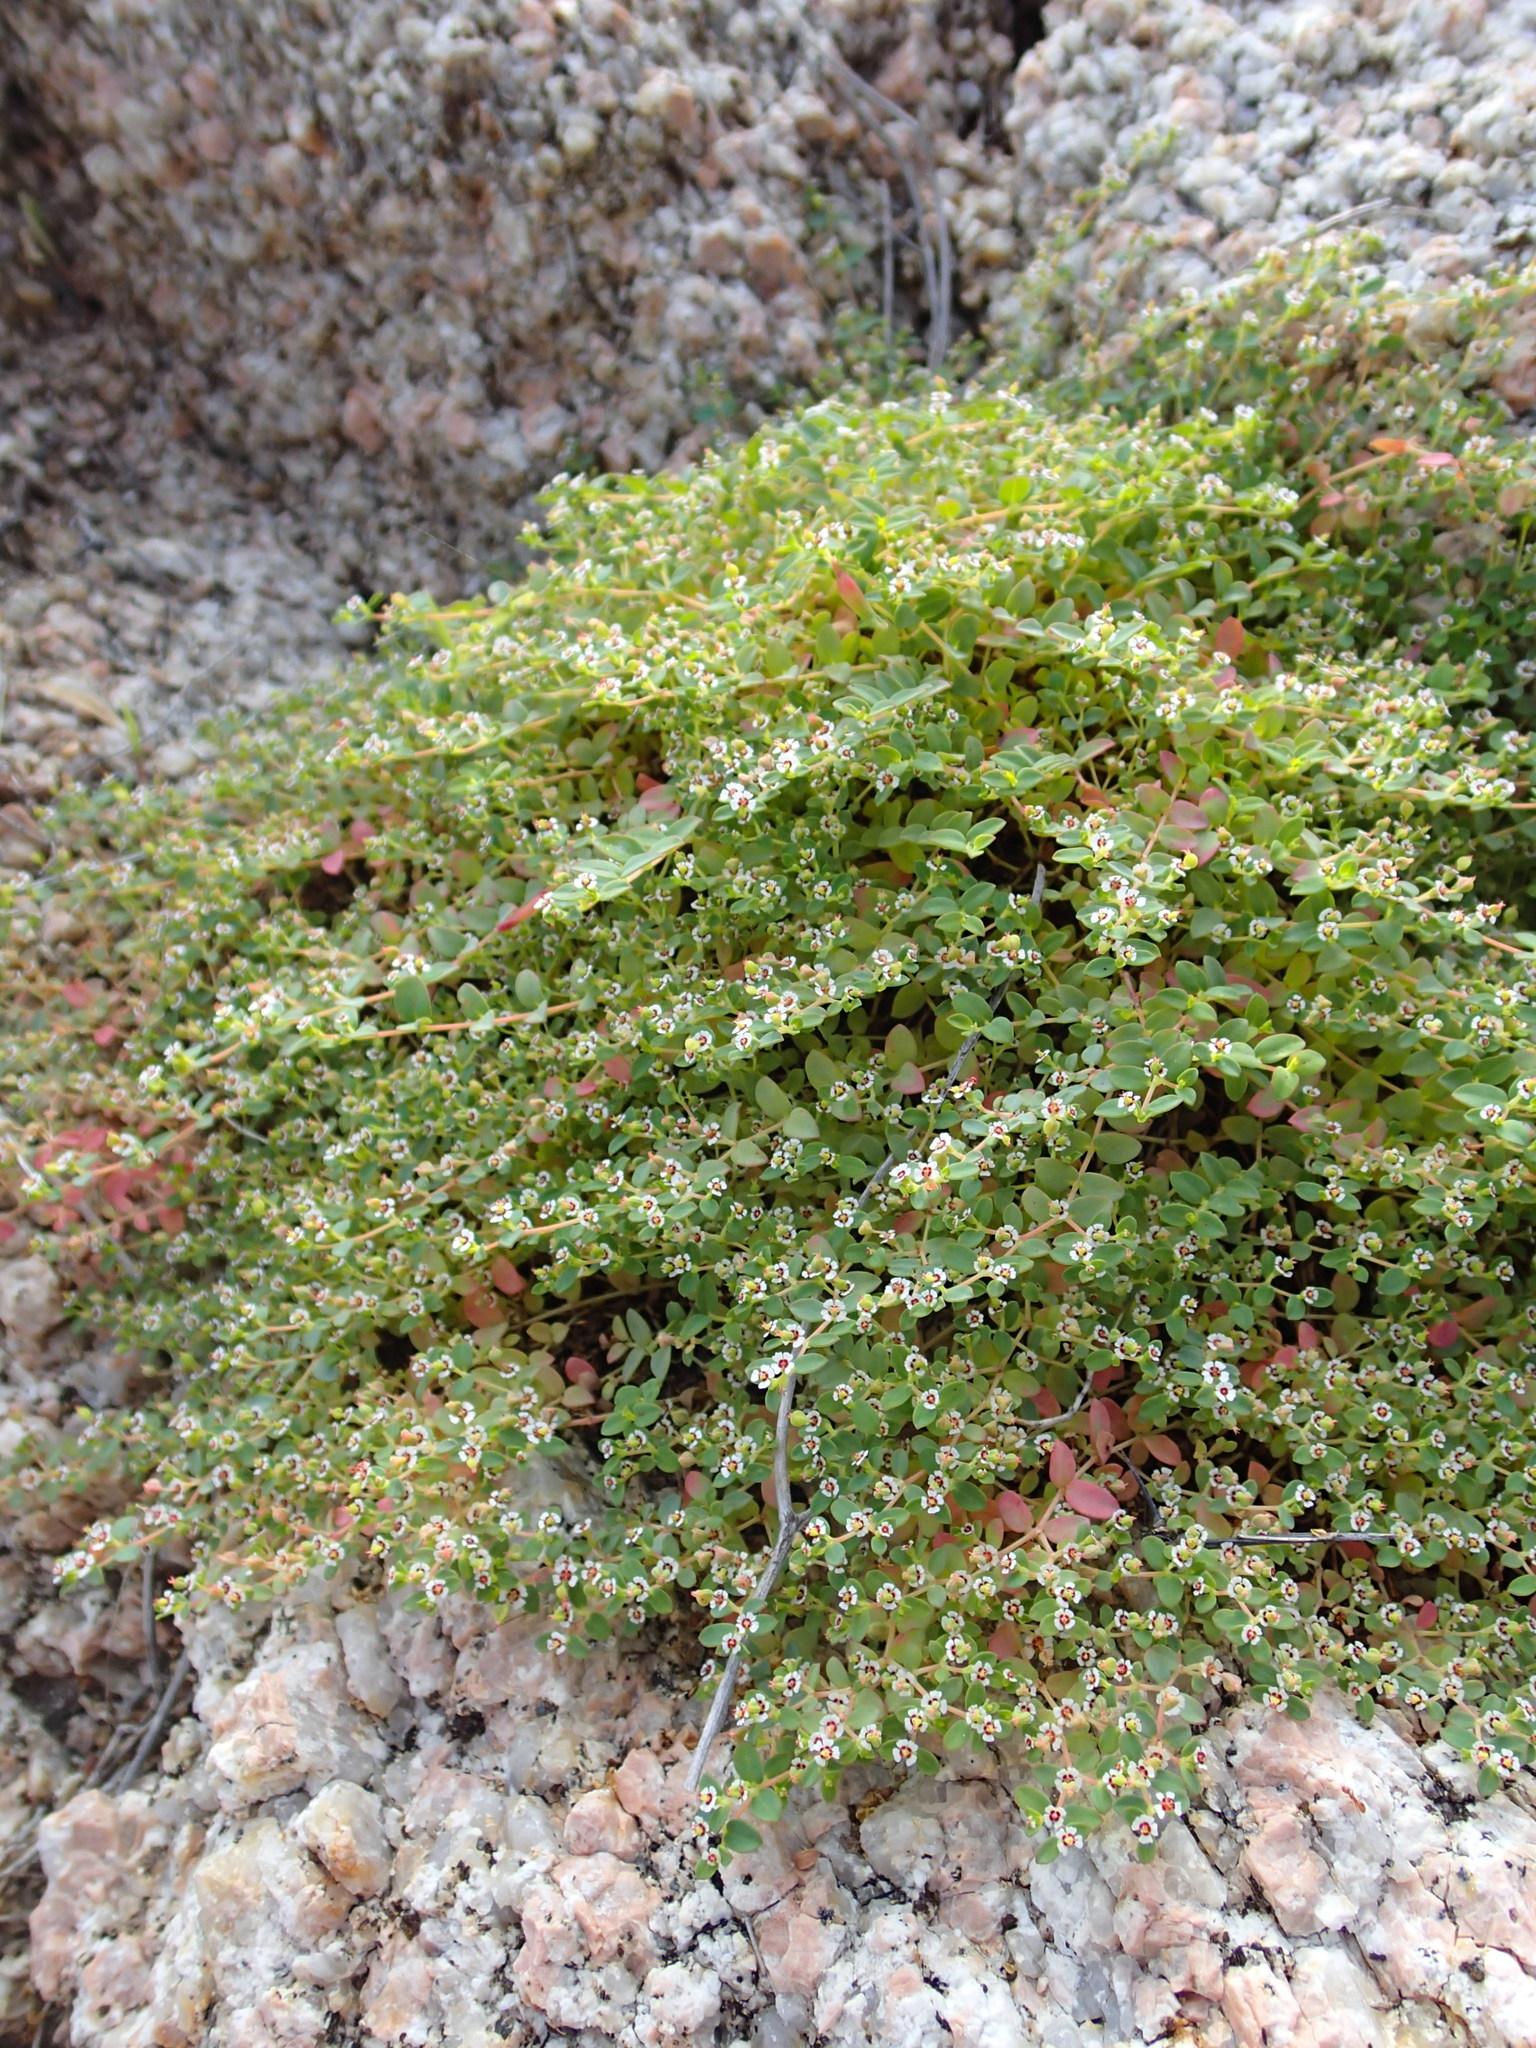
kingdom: Plantae
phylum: Tracheophyta
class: Magnoliopsida
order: Malpighiales
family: Euphorbiaceae
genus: Euphorbia
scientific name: Euphorbia polycarpa
